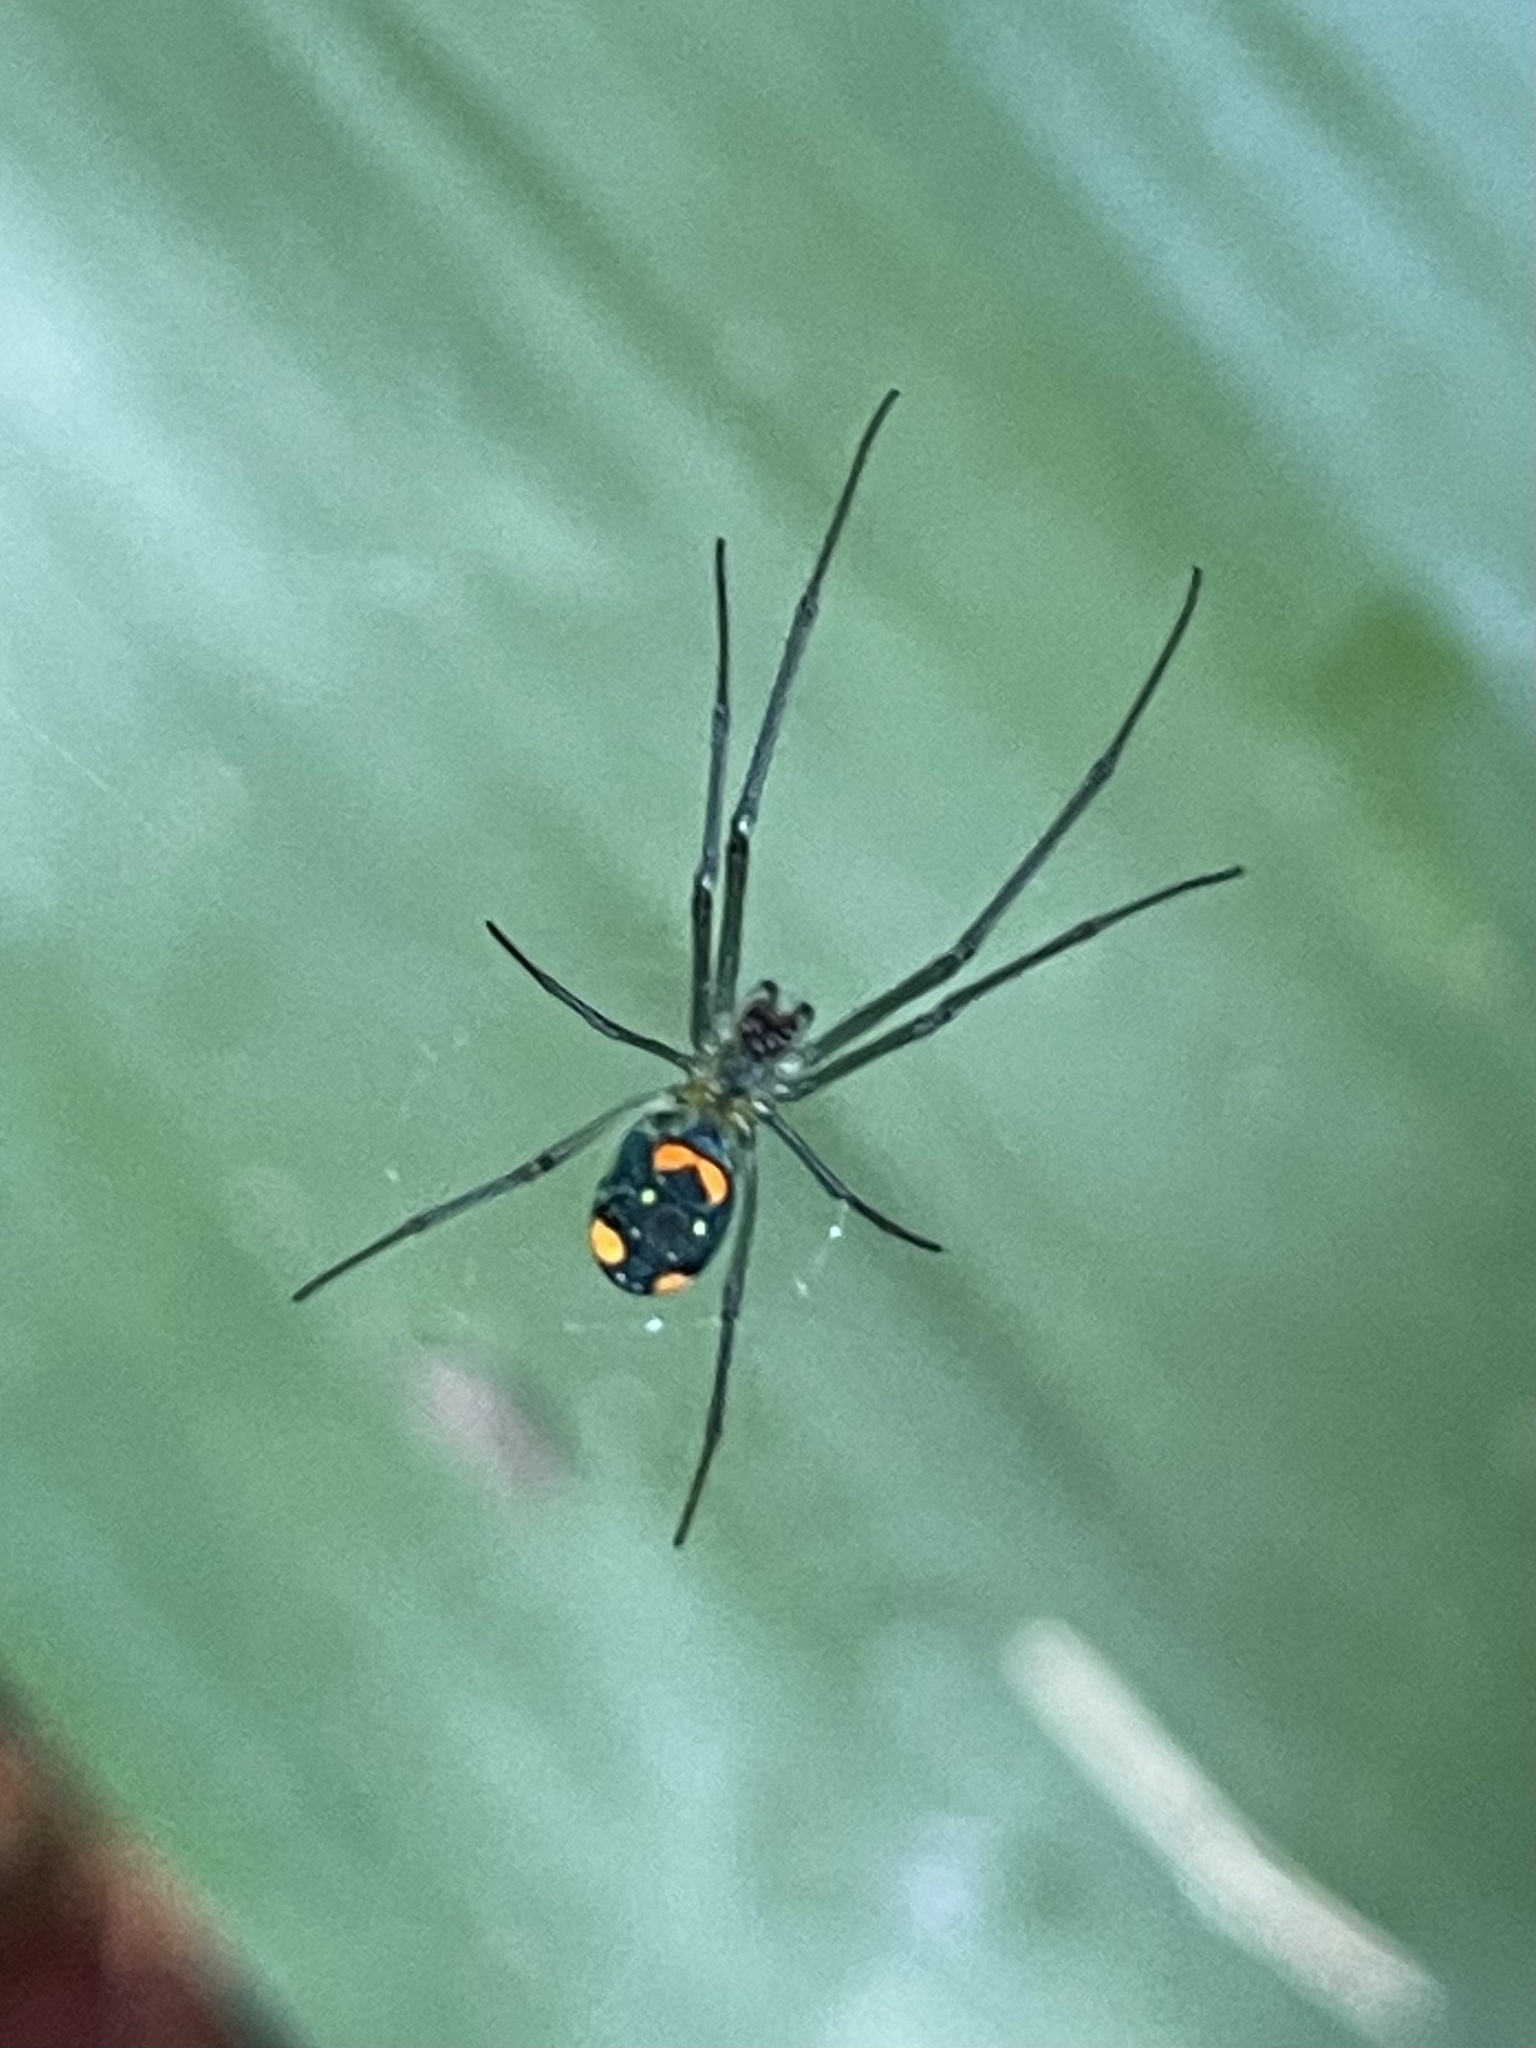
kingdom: Animalia
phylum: Arthropoda
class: Arachnida
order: Araneae
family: Tetragnathidae
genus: Leucauge
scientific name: Leucauge argyrobapta
